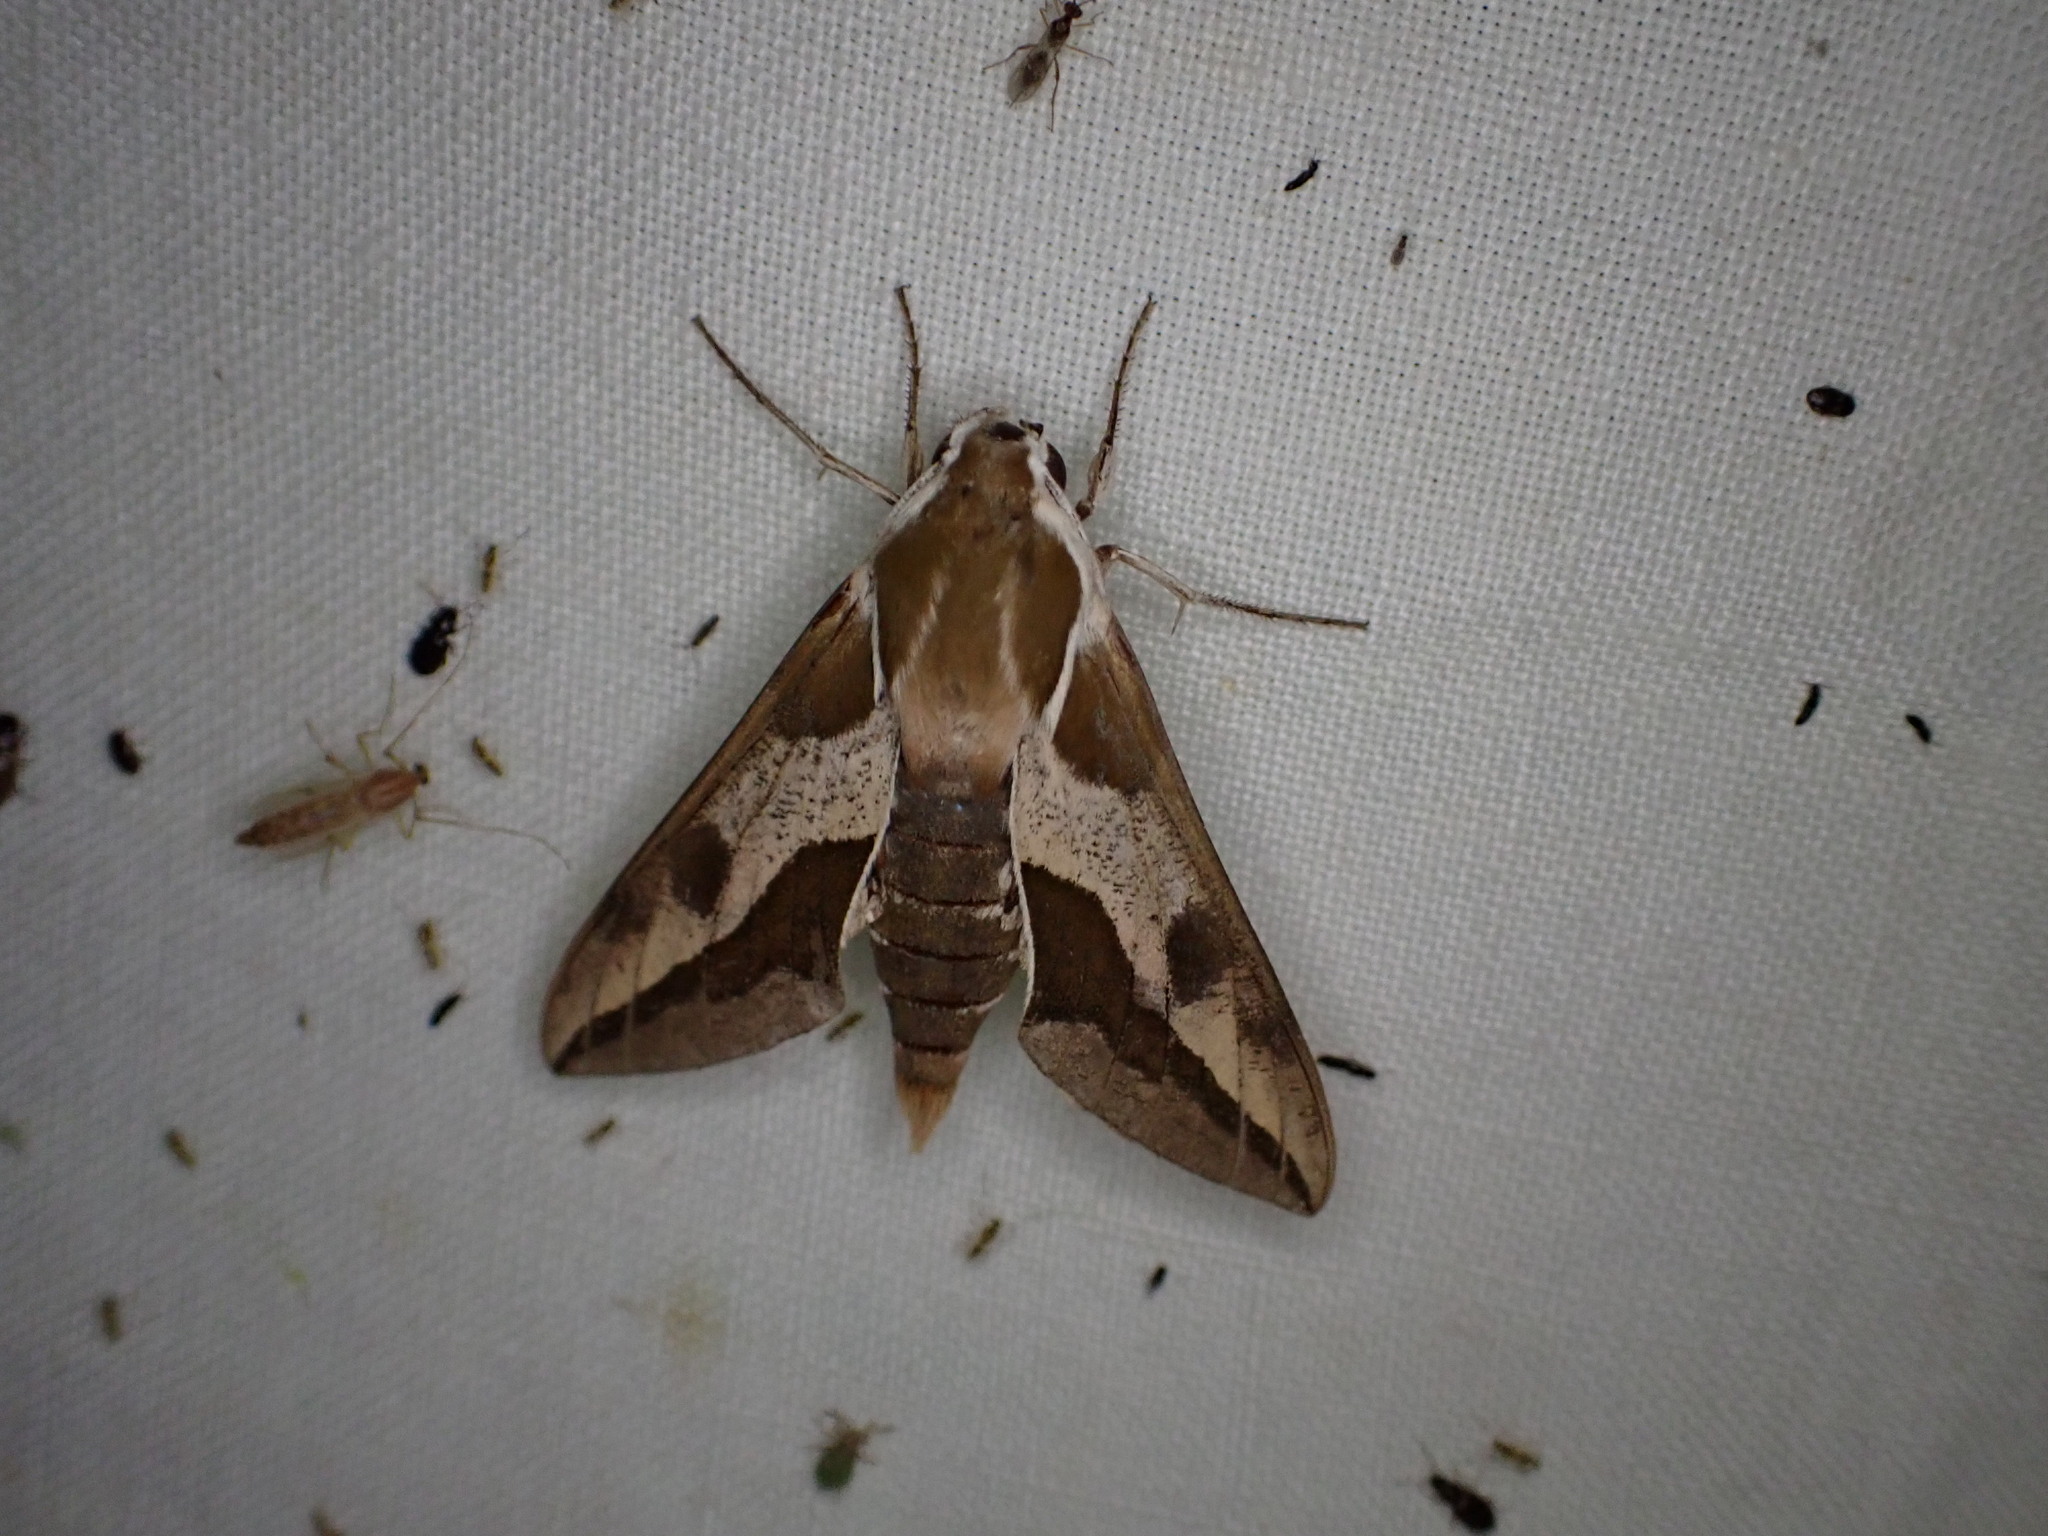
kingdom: Animalia
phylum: Arthropoda
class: Insecta
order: Lepidoptera
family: Sphingidae
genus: Hyles
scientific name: Hyles euphorbiae
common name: Spurge hawk-moth
